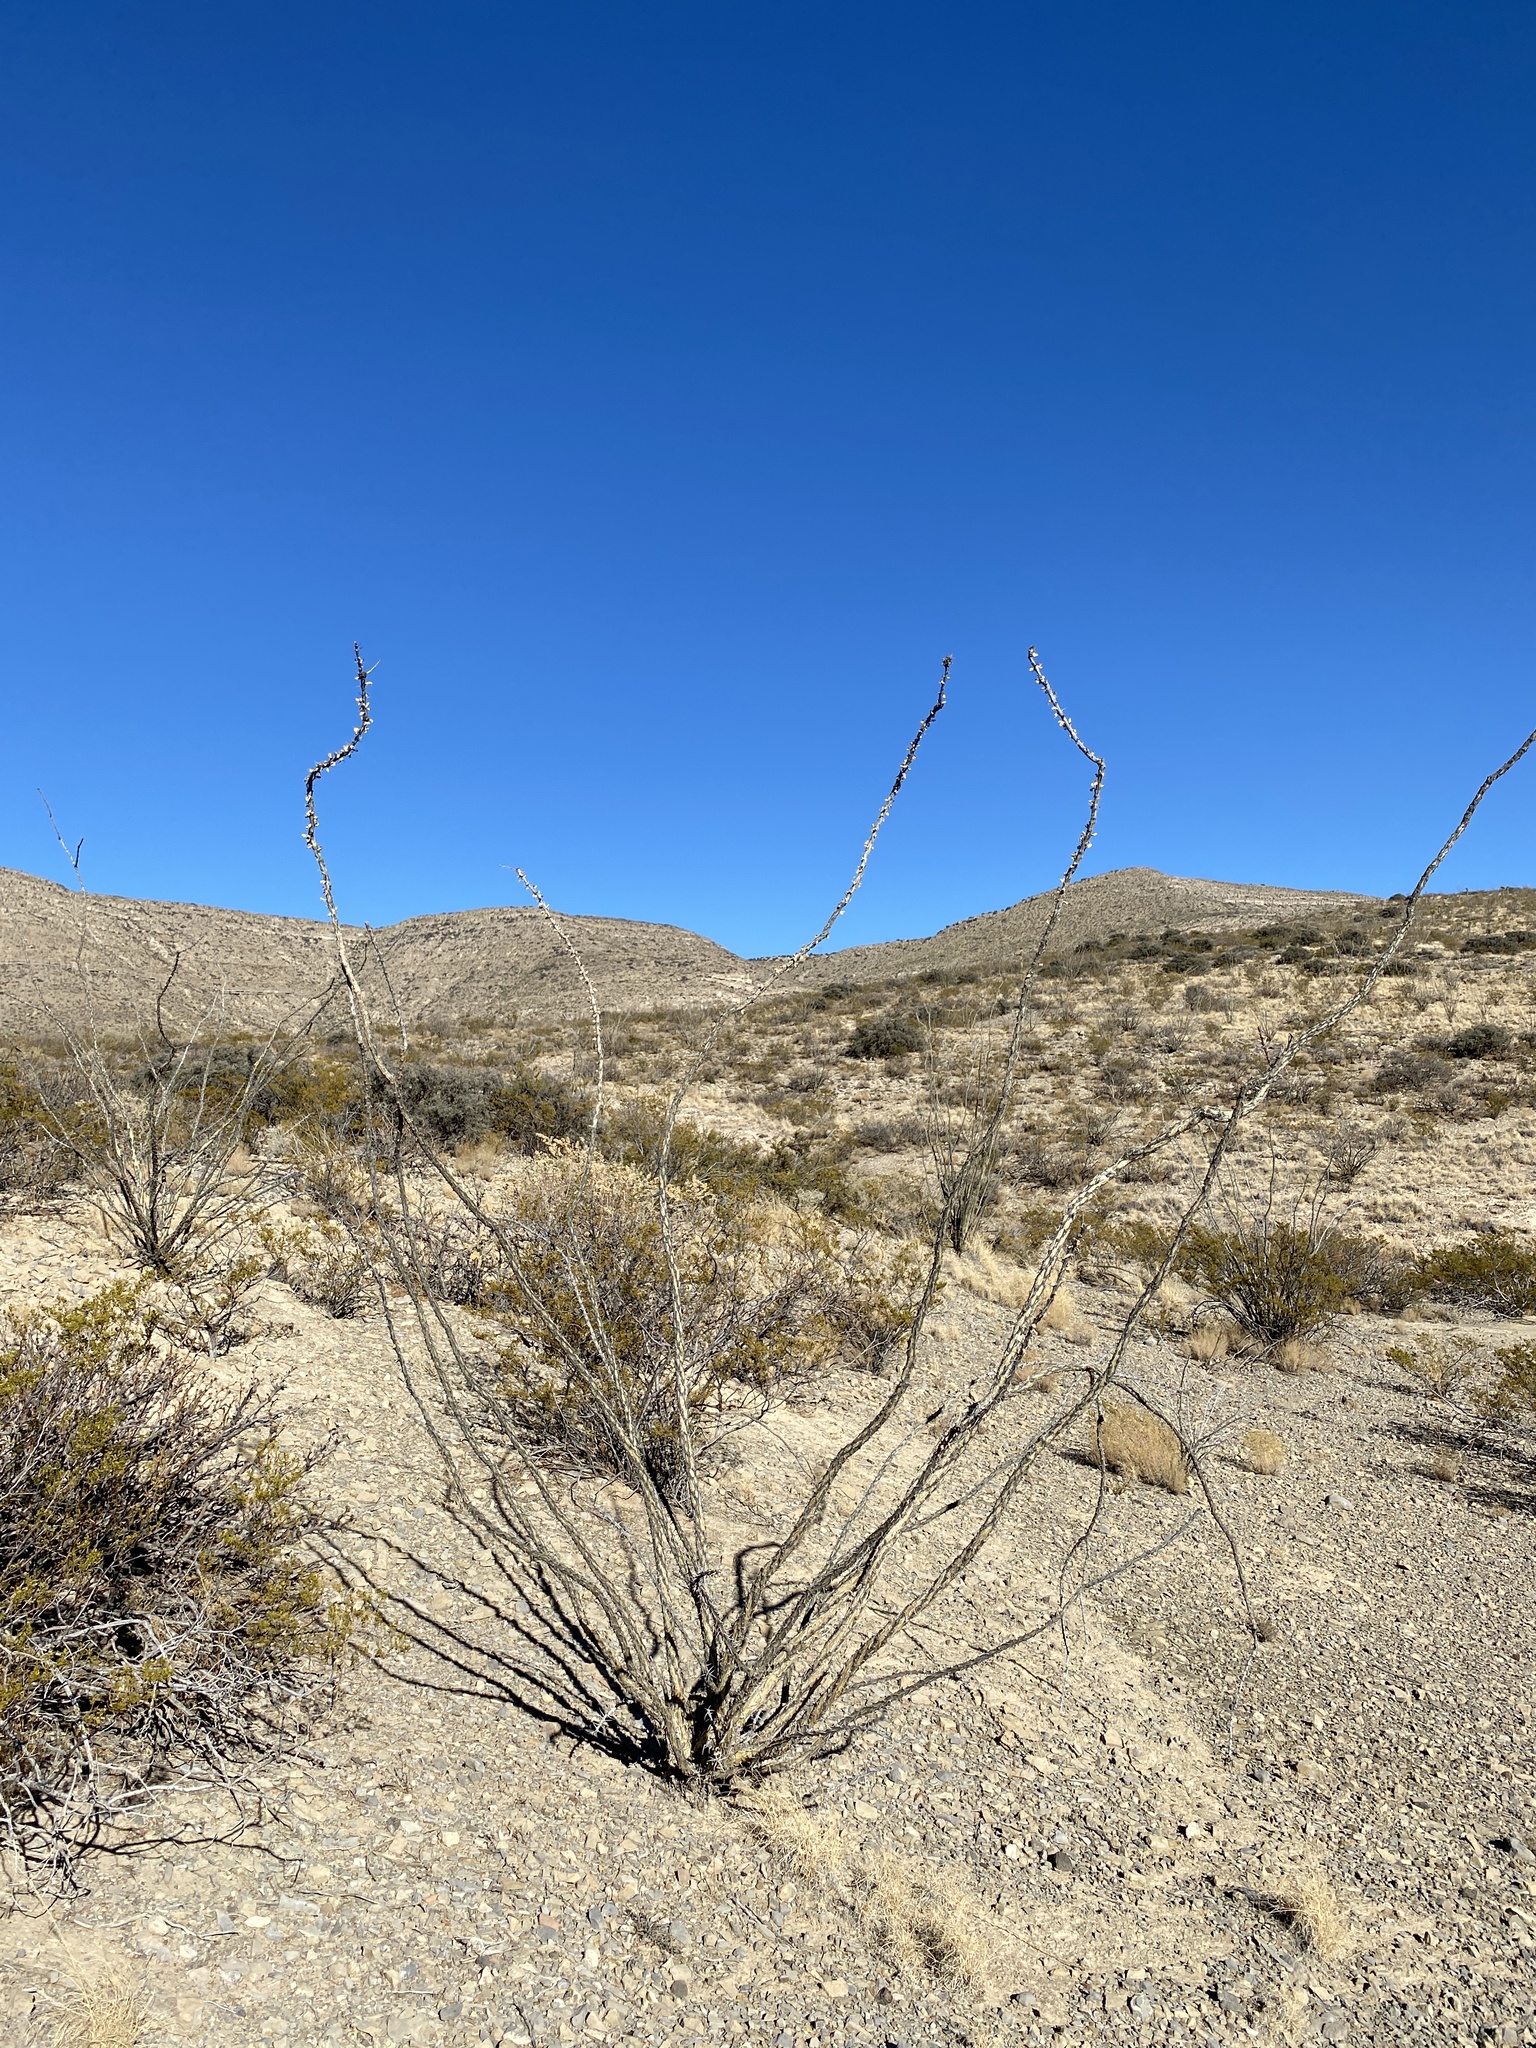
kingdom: Plantae
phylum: Tracheophyta
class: Magnoliopsida
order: Ericales
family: Fouquieriaceae
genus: Fouquieria
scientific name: Fouquieria splendens
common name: Vine-cactus
